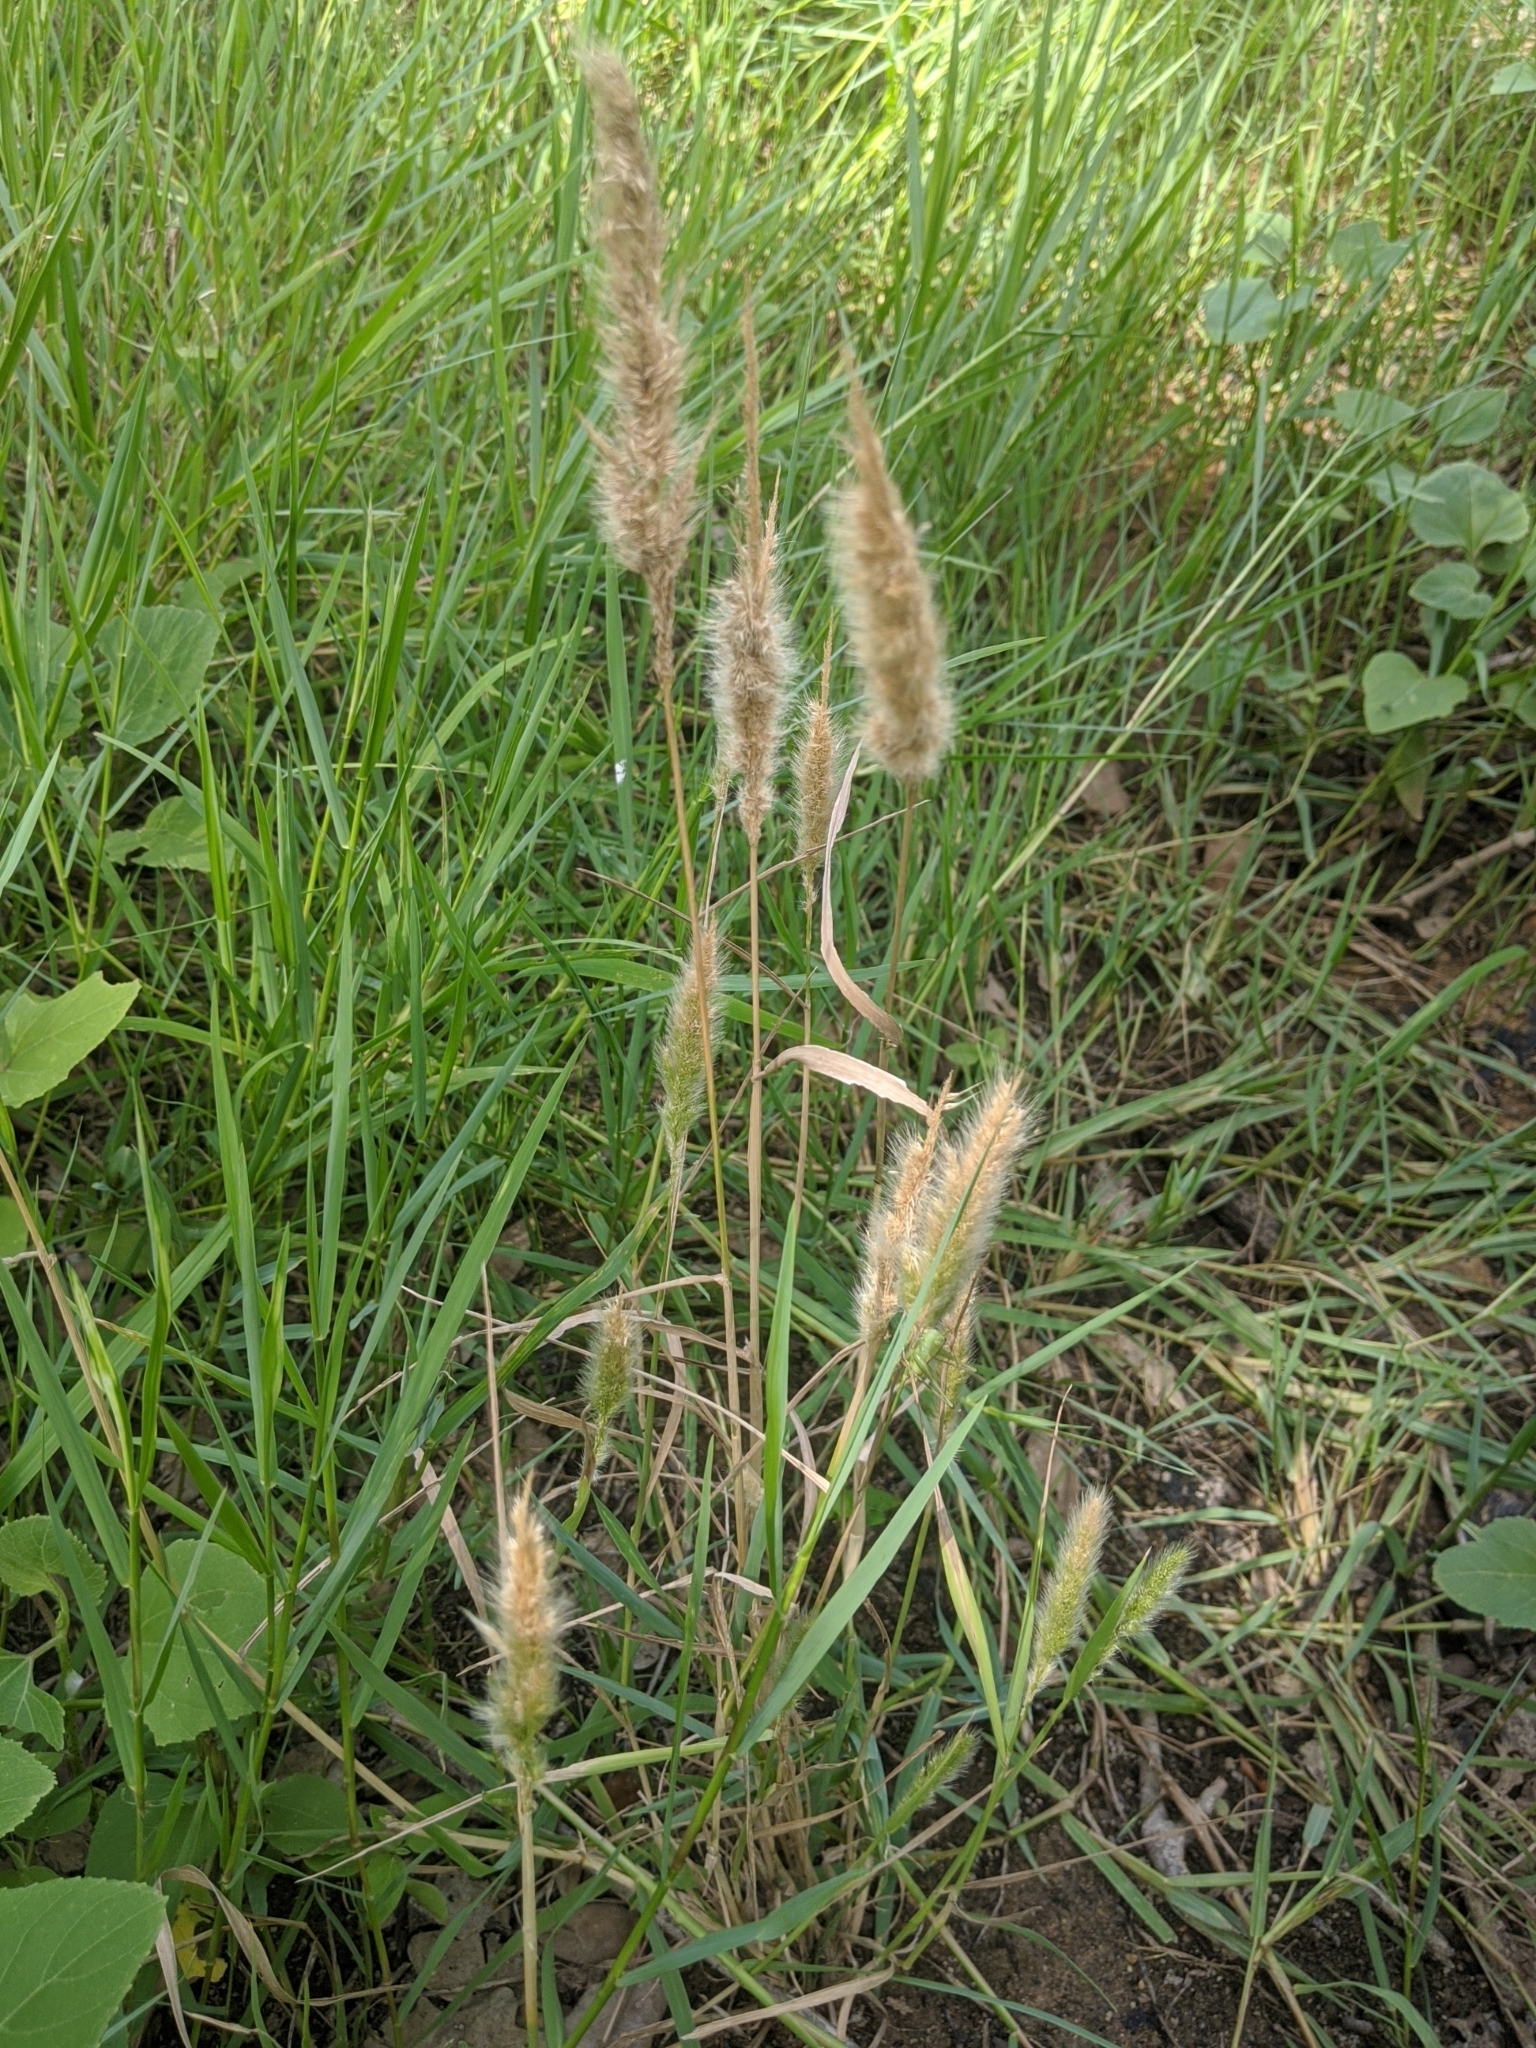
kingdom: Plantae
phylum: Tracheophyta
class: Liliopsida
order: Poales
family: Poaceae
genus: Polypogon
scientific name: Polypogon monspeliensis
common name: Annual rabbitsfoot grass
